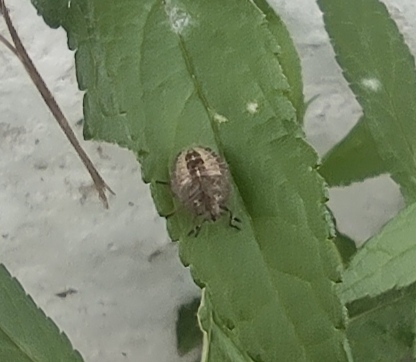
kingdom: Animalia
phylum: Arthropoda
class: Insecta
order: Hemiptera
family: Pentatomidae
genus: Dolycoris
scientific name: Dolycoris baccarum
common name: Sloe bug
